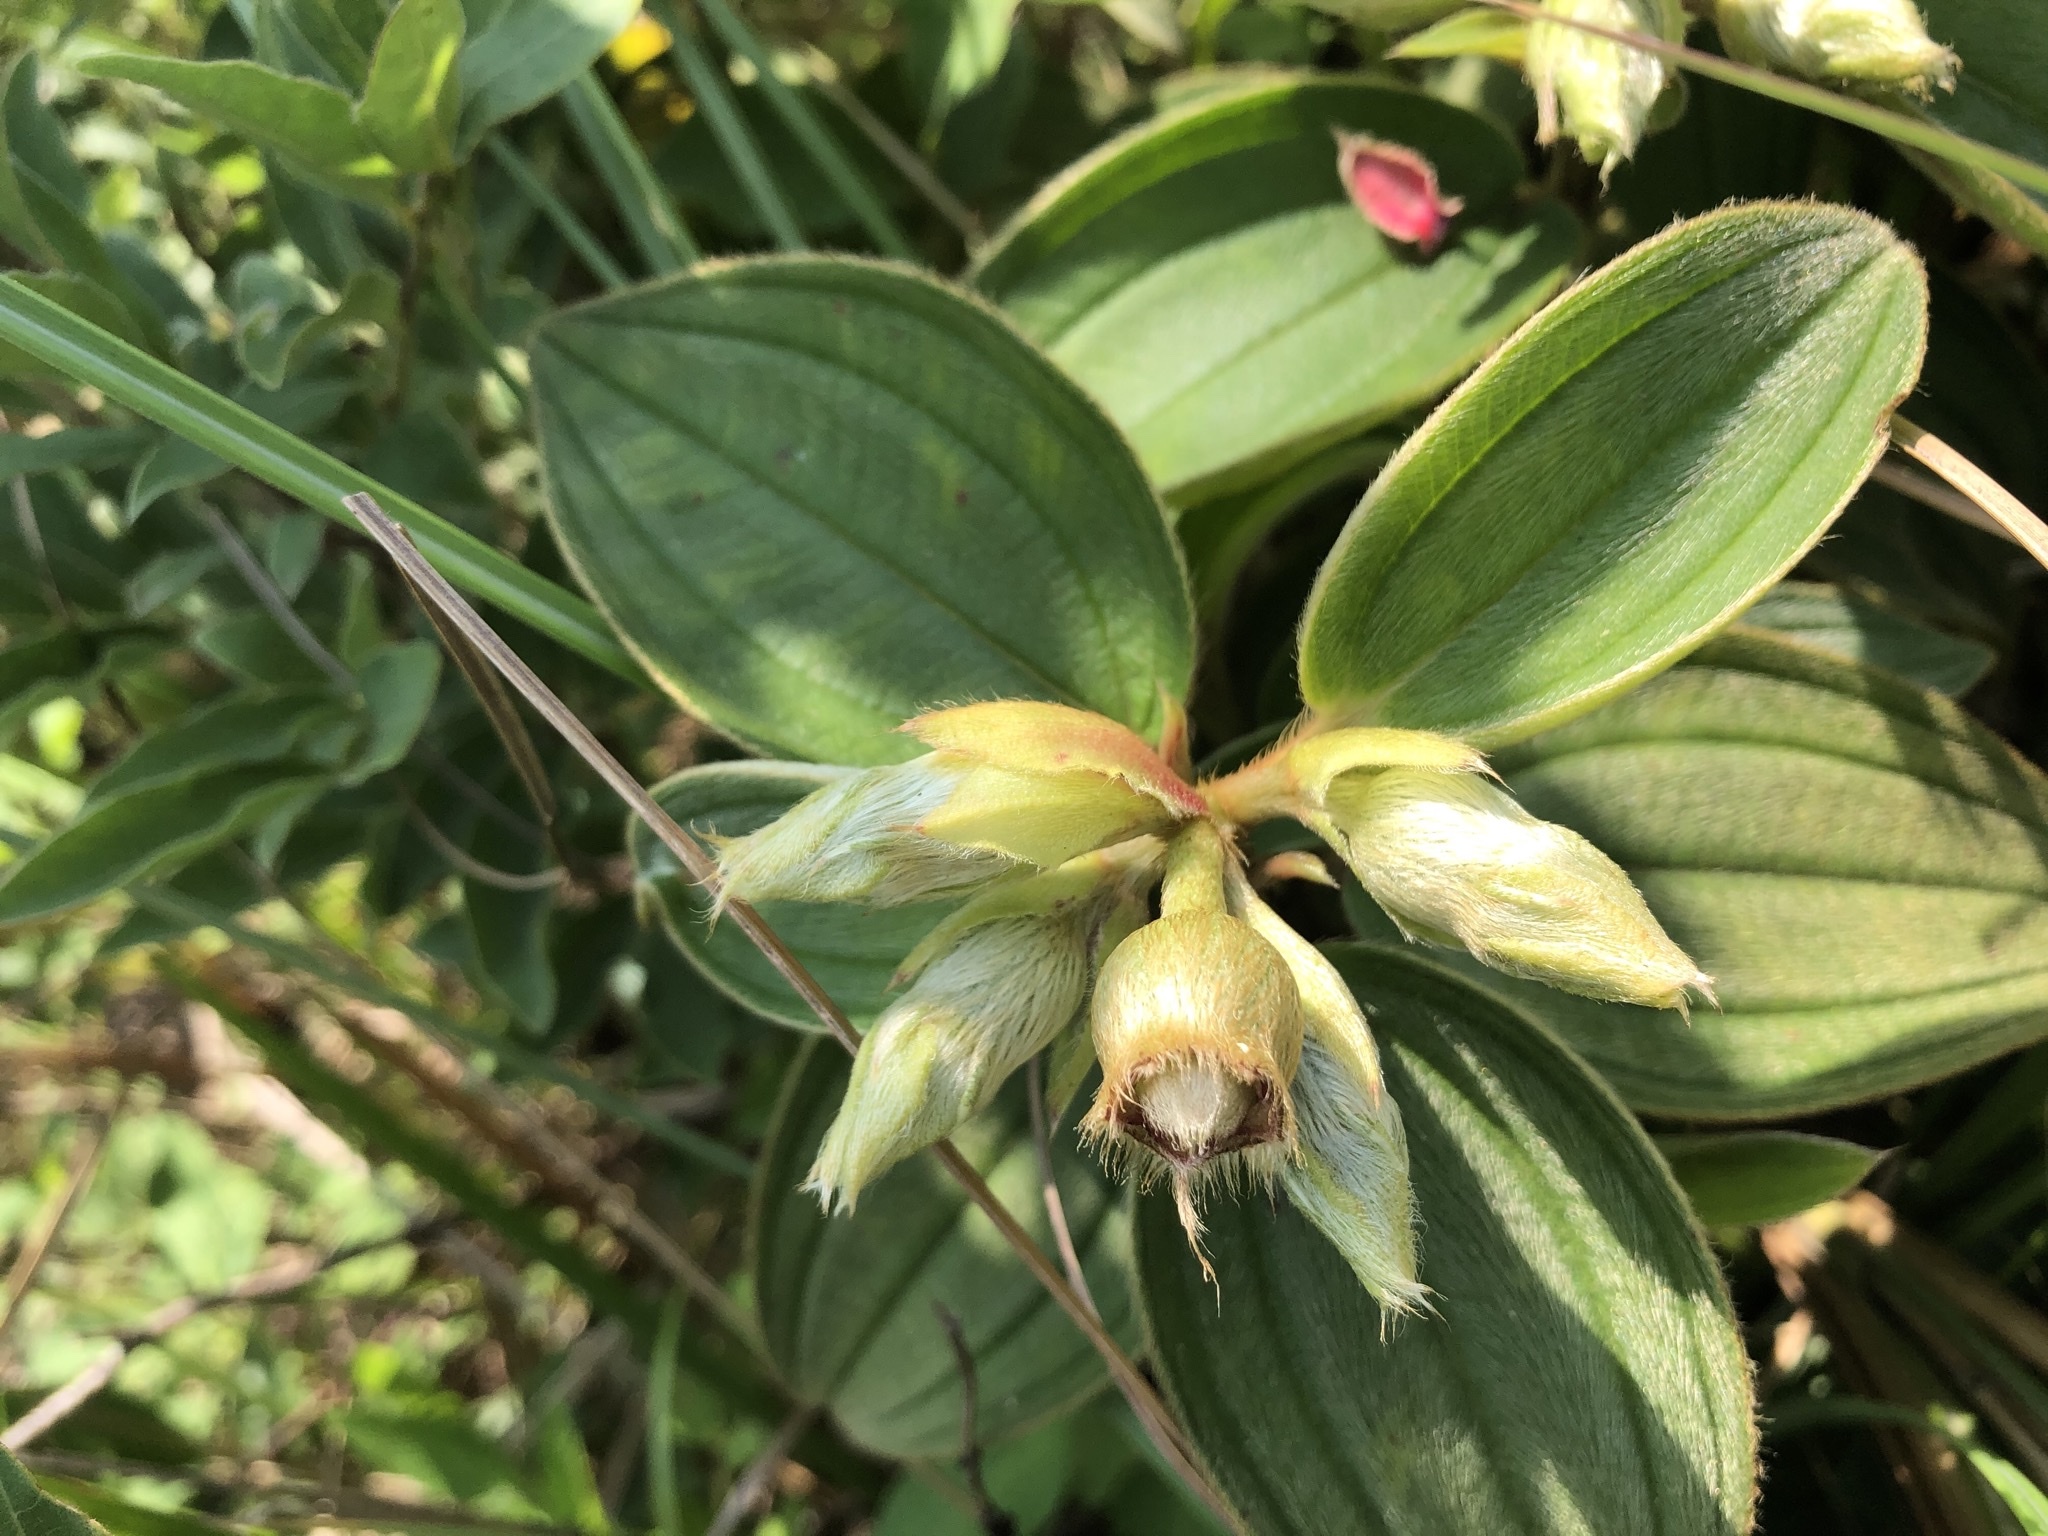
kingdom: Plantae
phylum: Tracheophyta
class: Magnoliopsida
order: Myrtales
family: Melastomataceae
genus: Melastoma
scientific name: Melastoma malabathricum
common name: Indian-rhododendron
